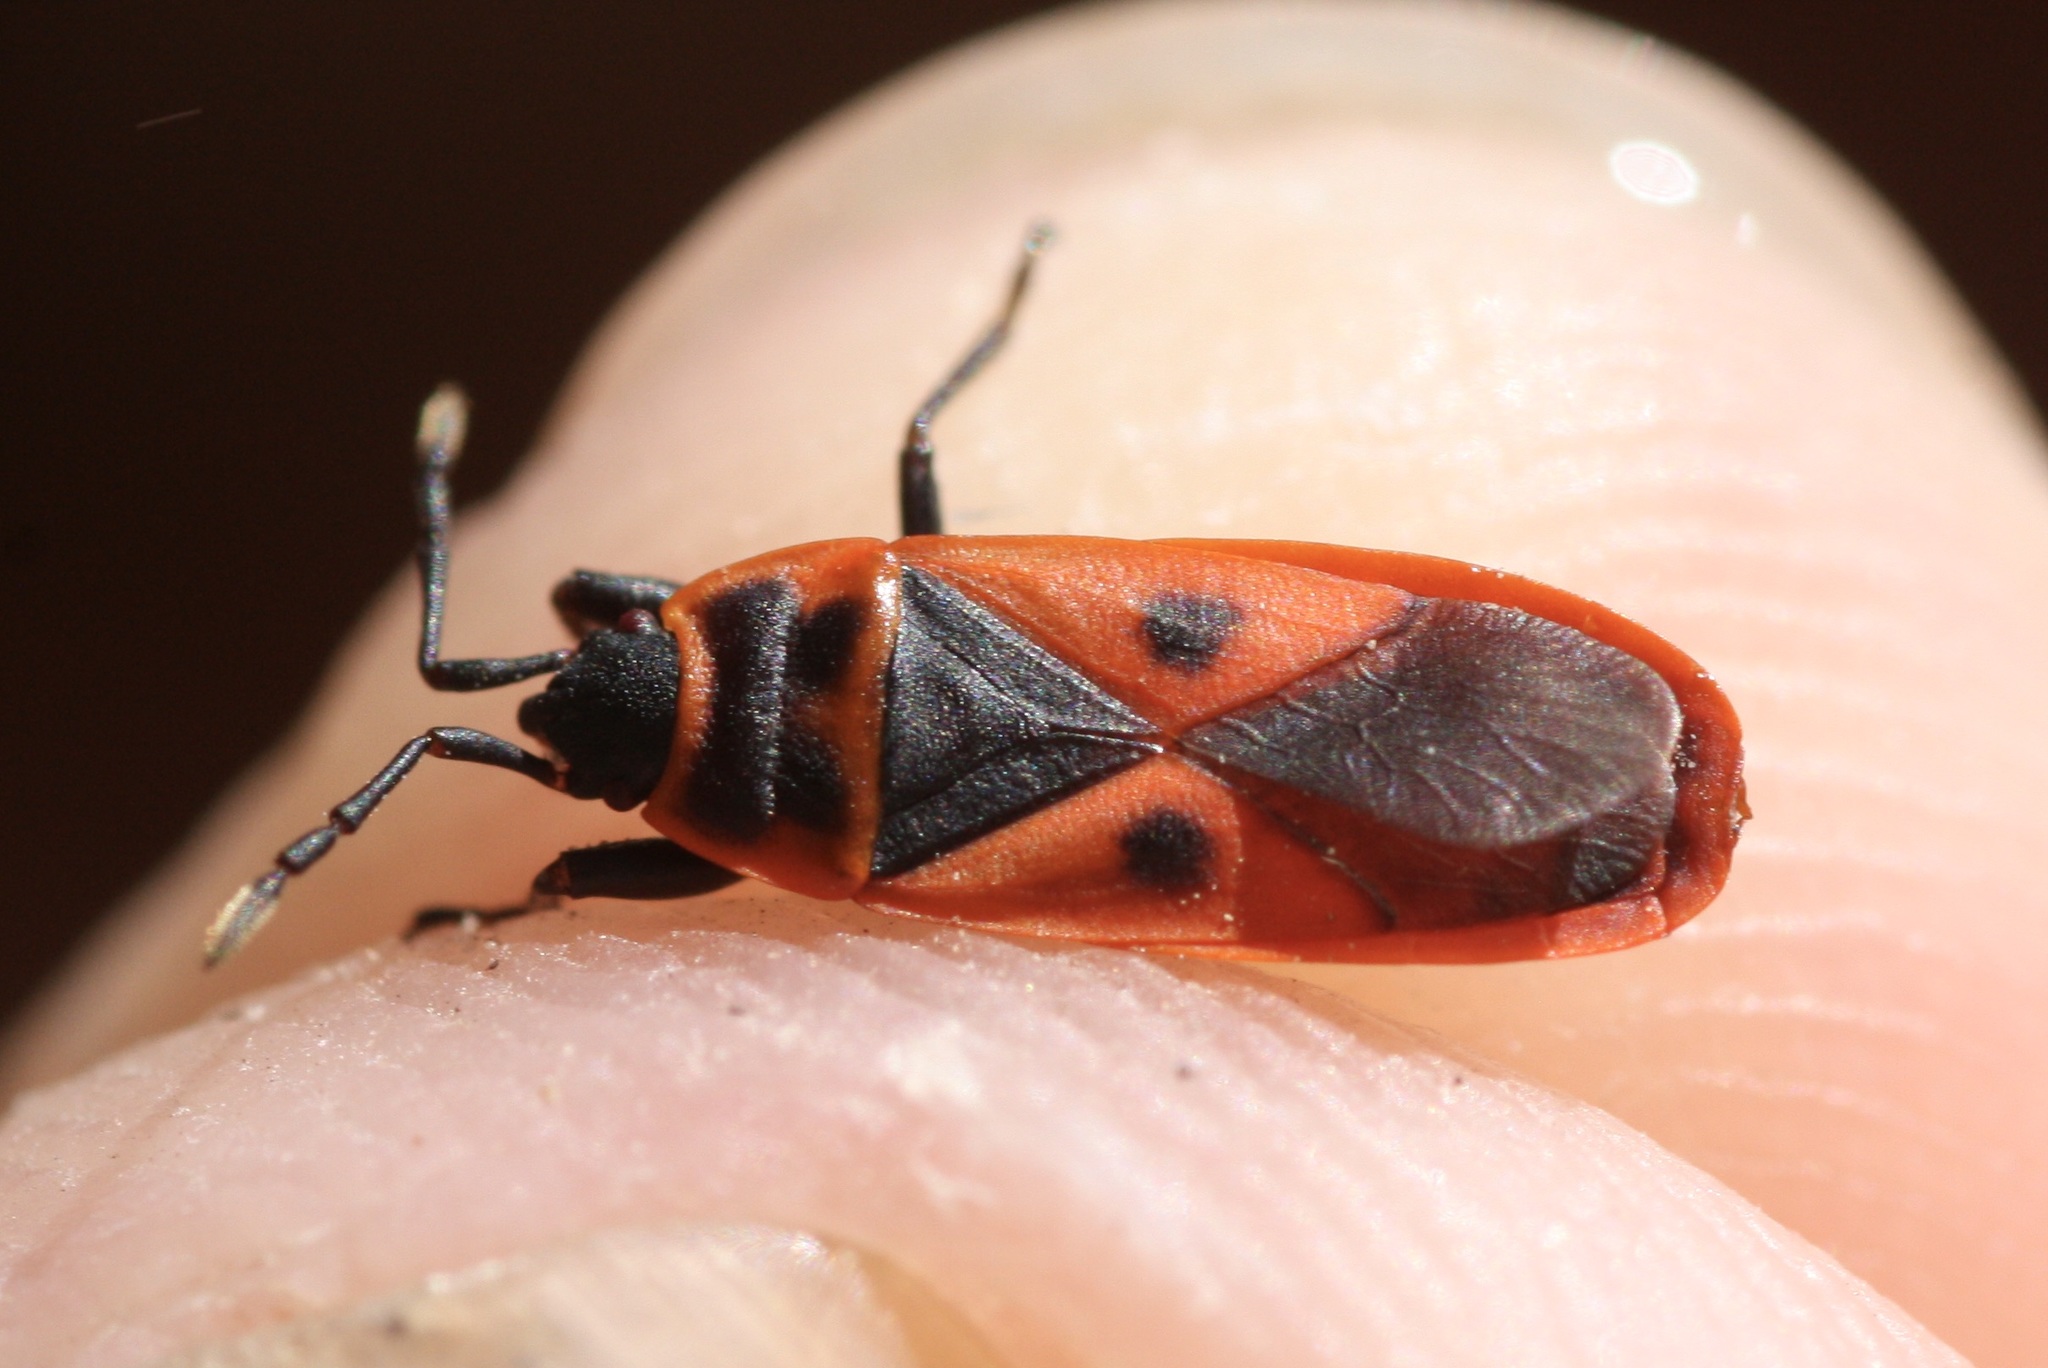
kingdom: Animalia
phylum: Arthropoda
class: Insecta
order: Hemiptera
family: Pyrrhocoridae
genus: Scantius
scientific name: Scantius aegyptius
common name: Red bug
